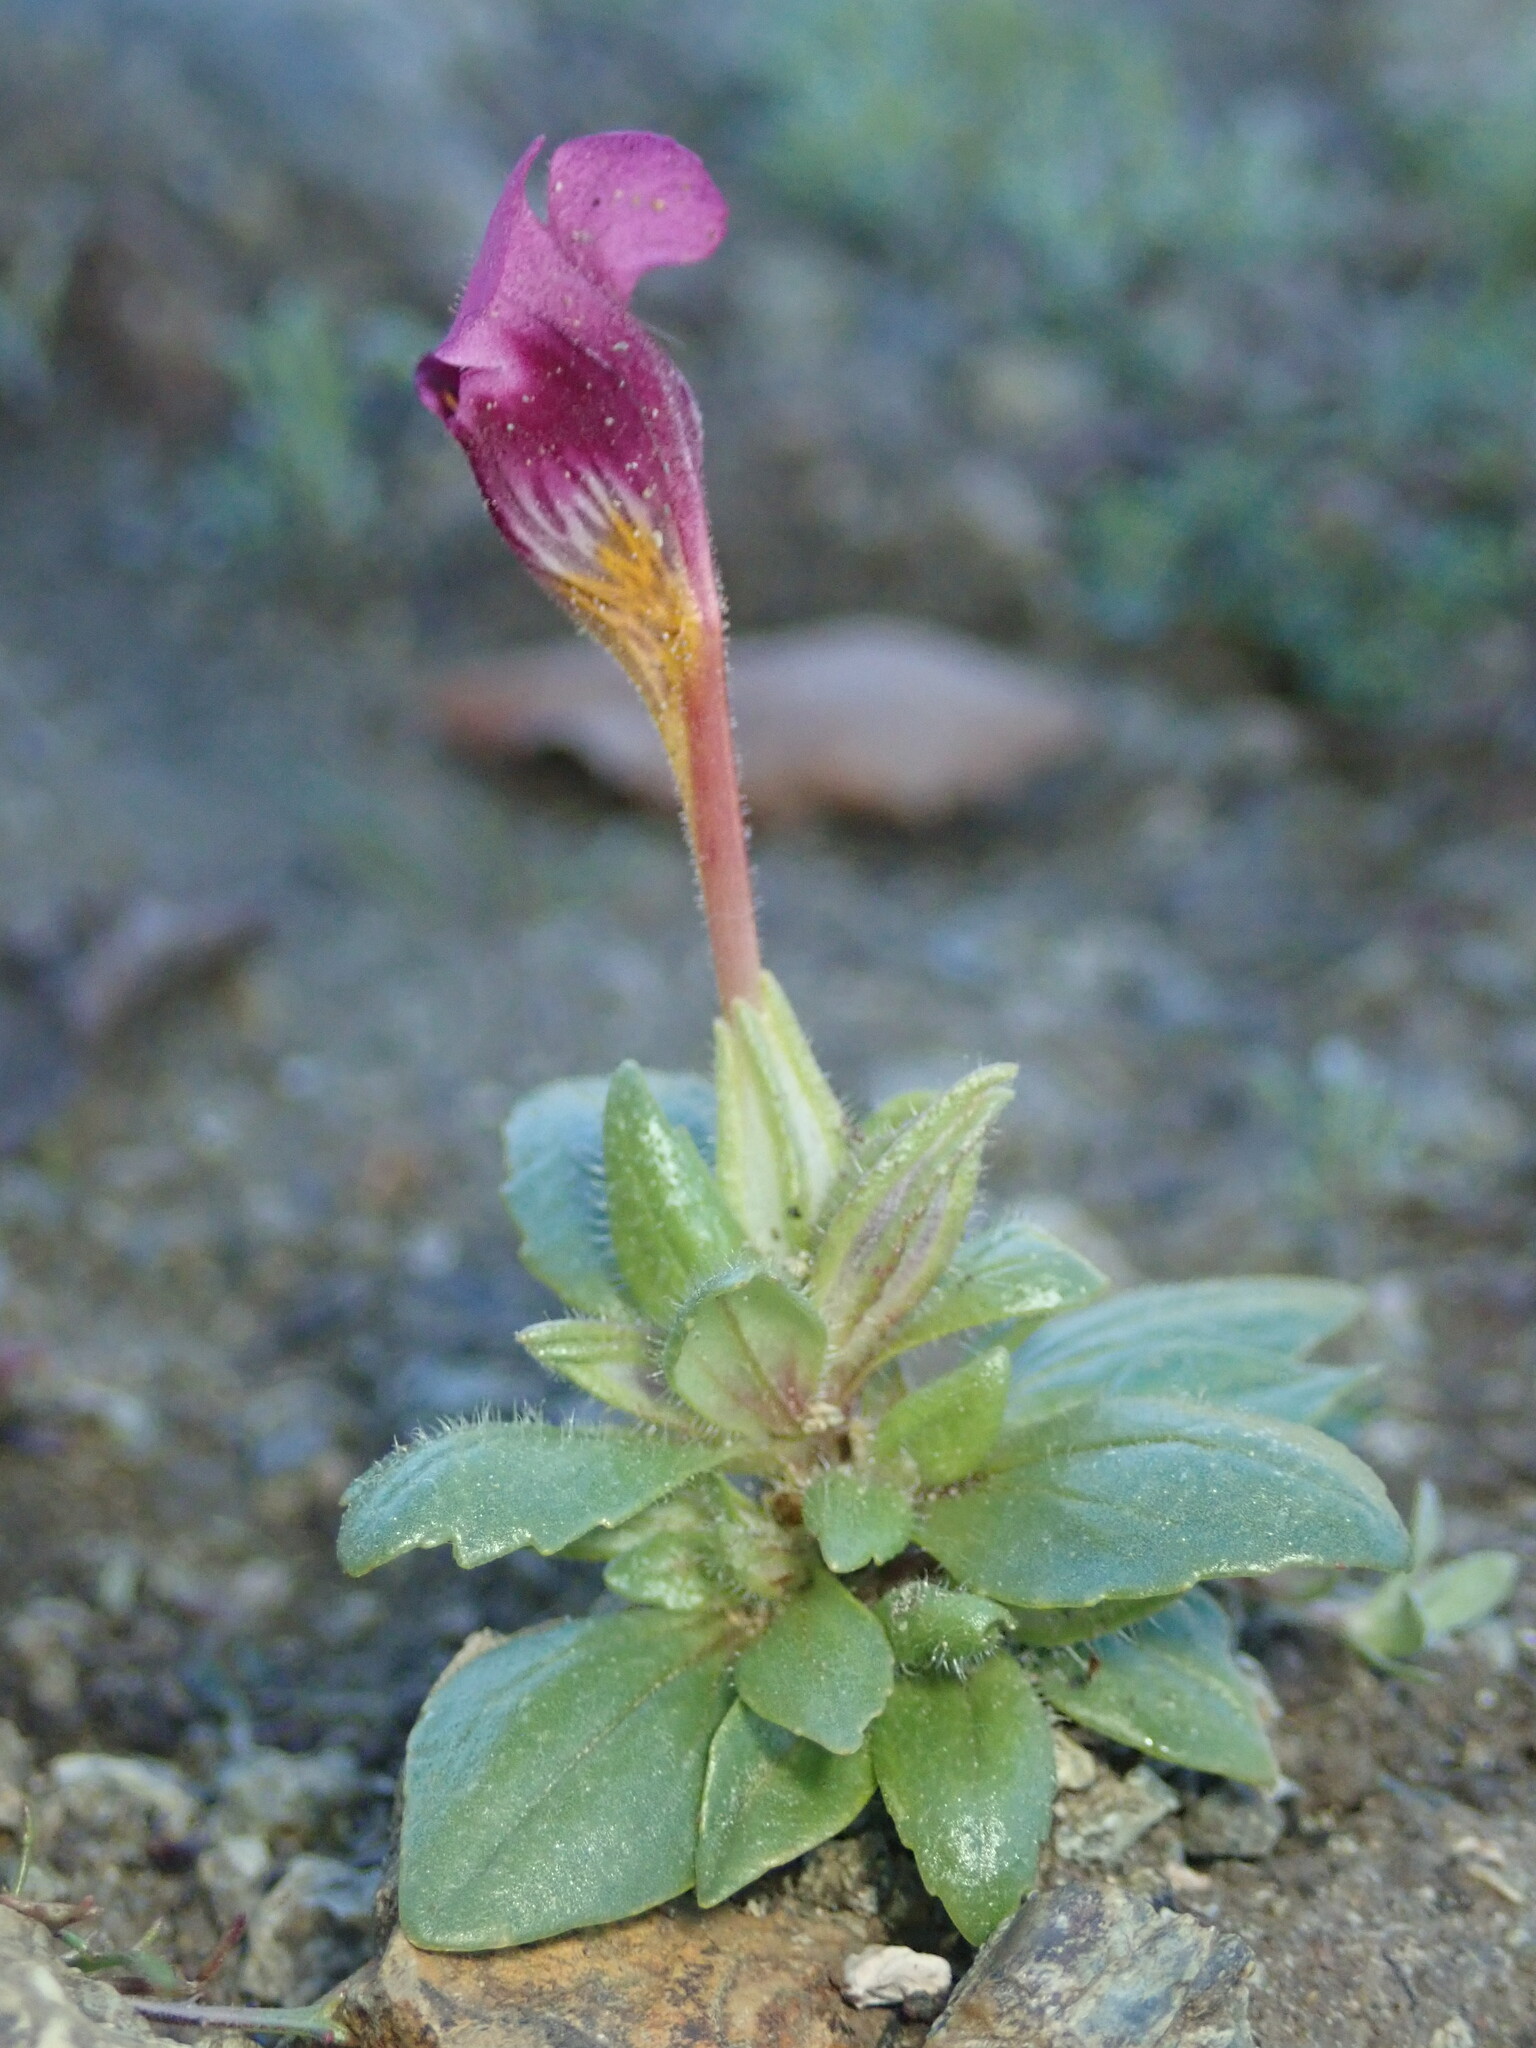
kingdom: Plantae
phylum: Tracheophyta
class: Magnoliopsida
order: Lamiales
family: Phrymaceae
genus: Diplacus
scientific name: Diplacus douglasii
